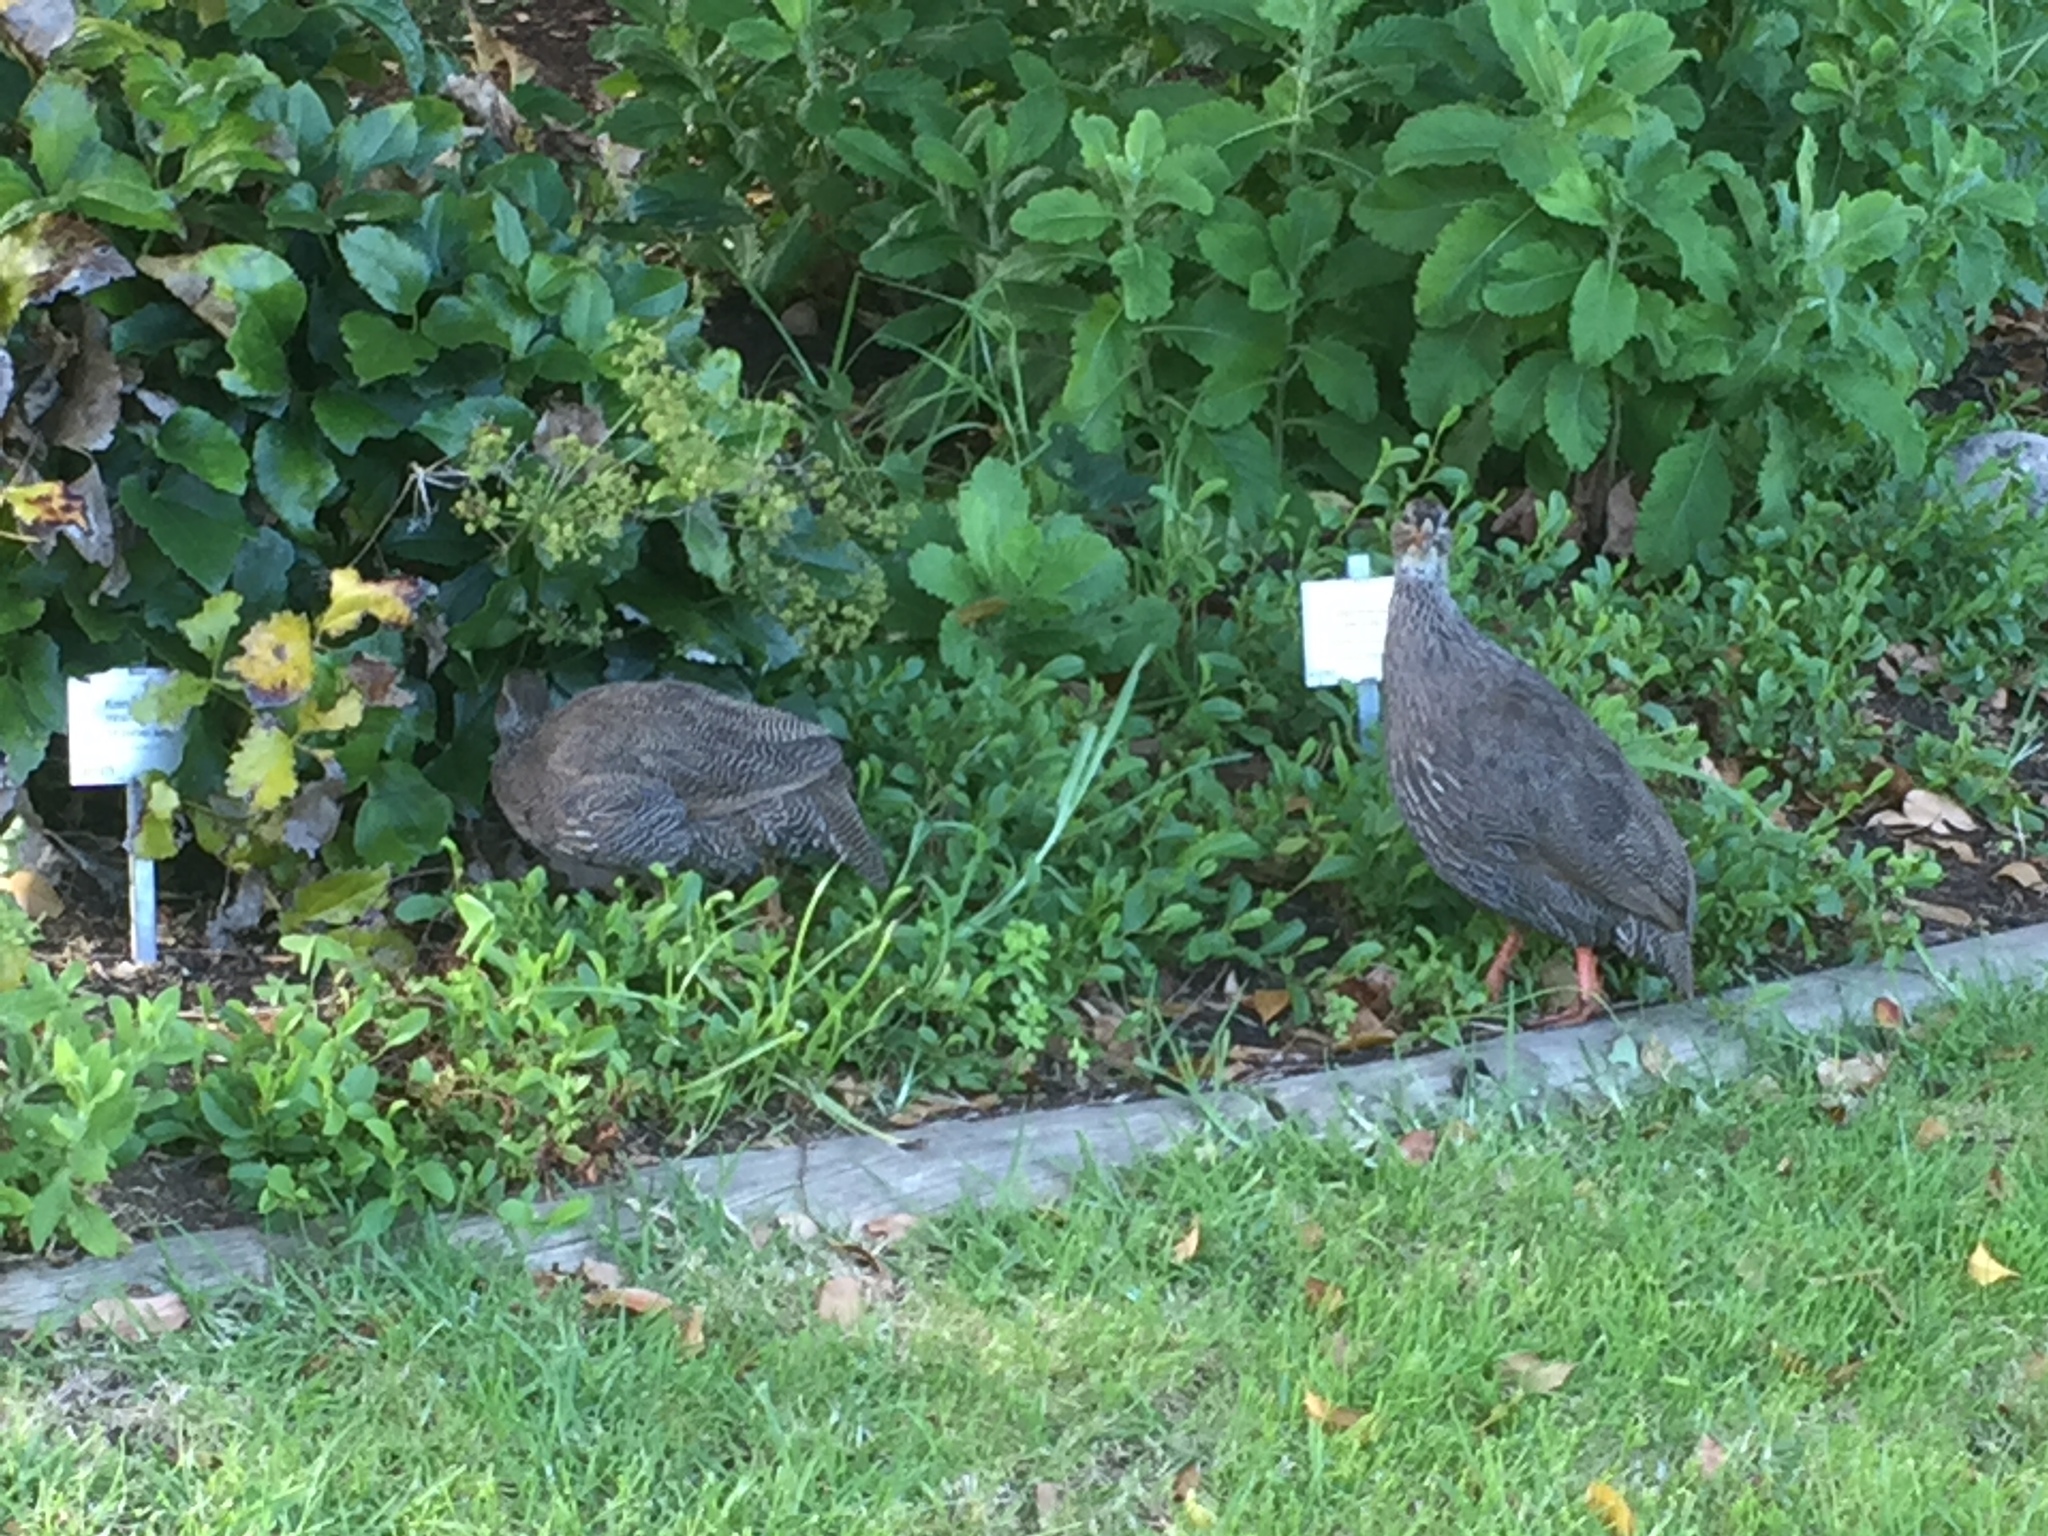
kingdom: Animalia
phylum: Chordata
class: Aves
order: Galliformes
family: Phasianidae
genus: Pternistis
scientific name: Pternistis capensis
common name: Cape spurfowl
